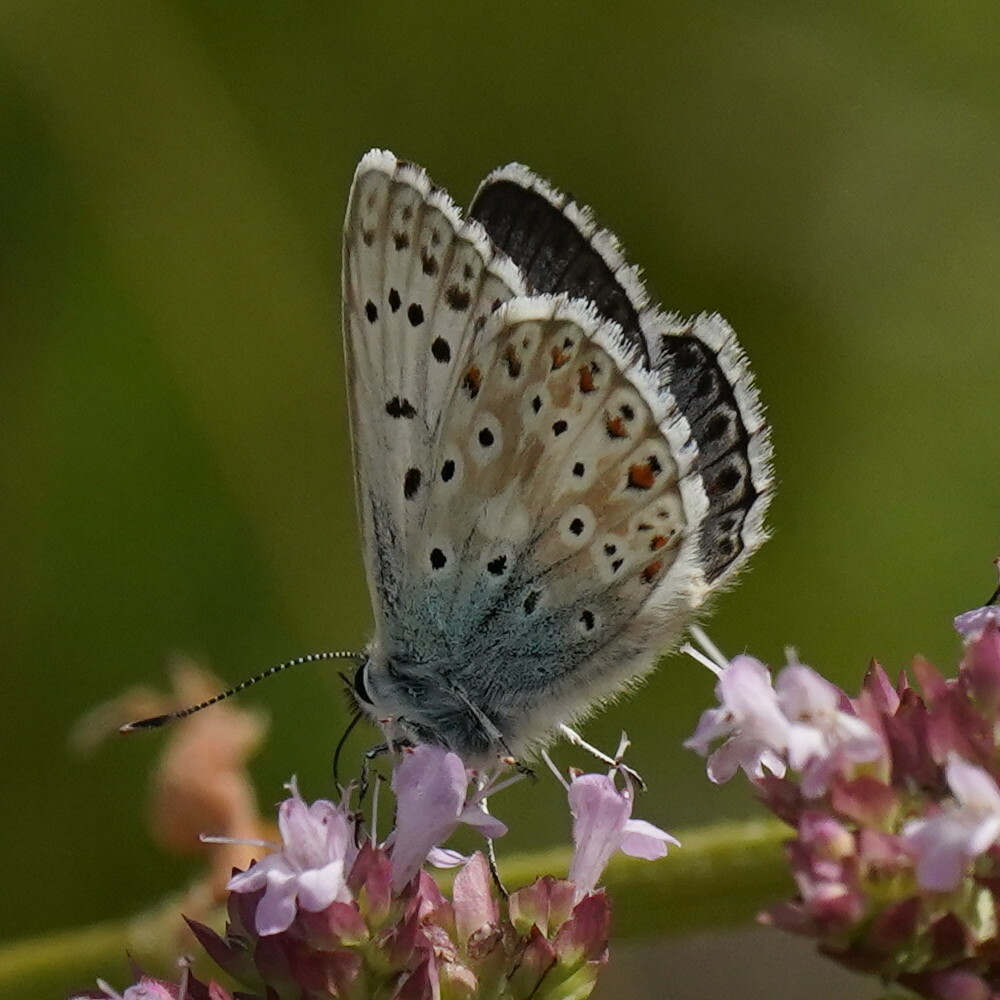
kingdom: Animalia
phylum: Arthropoda
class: Insecta
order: Lepidoptera
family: Lycaenidae
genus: Lysandra
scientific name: Lysandra coridon
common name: Chalkhill blue
